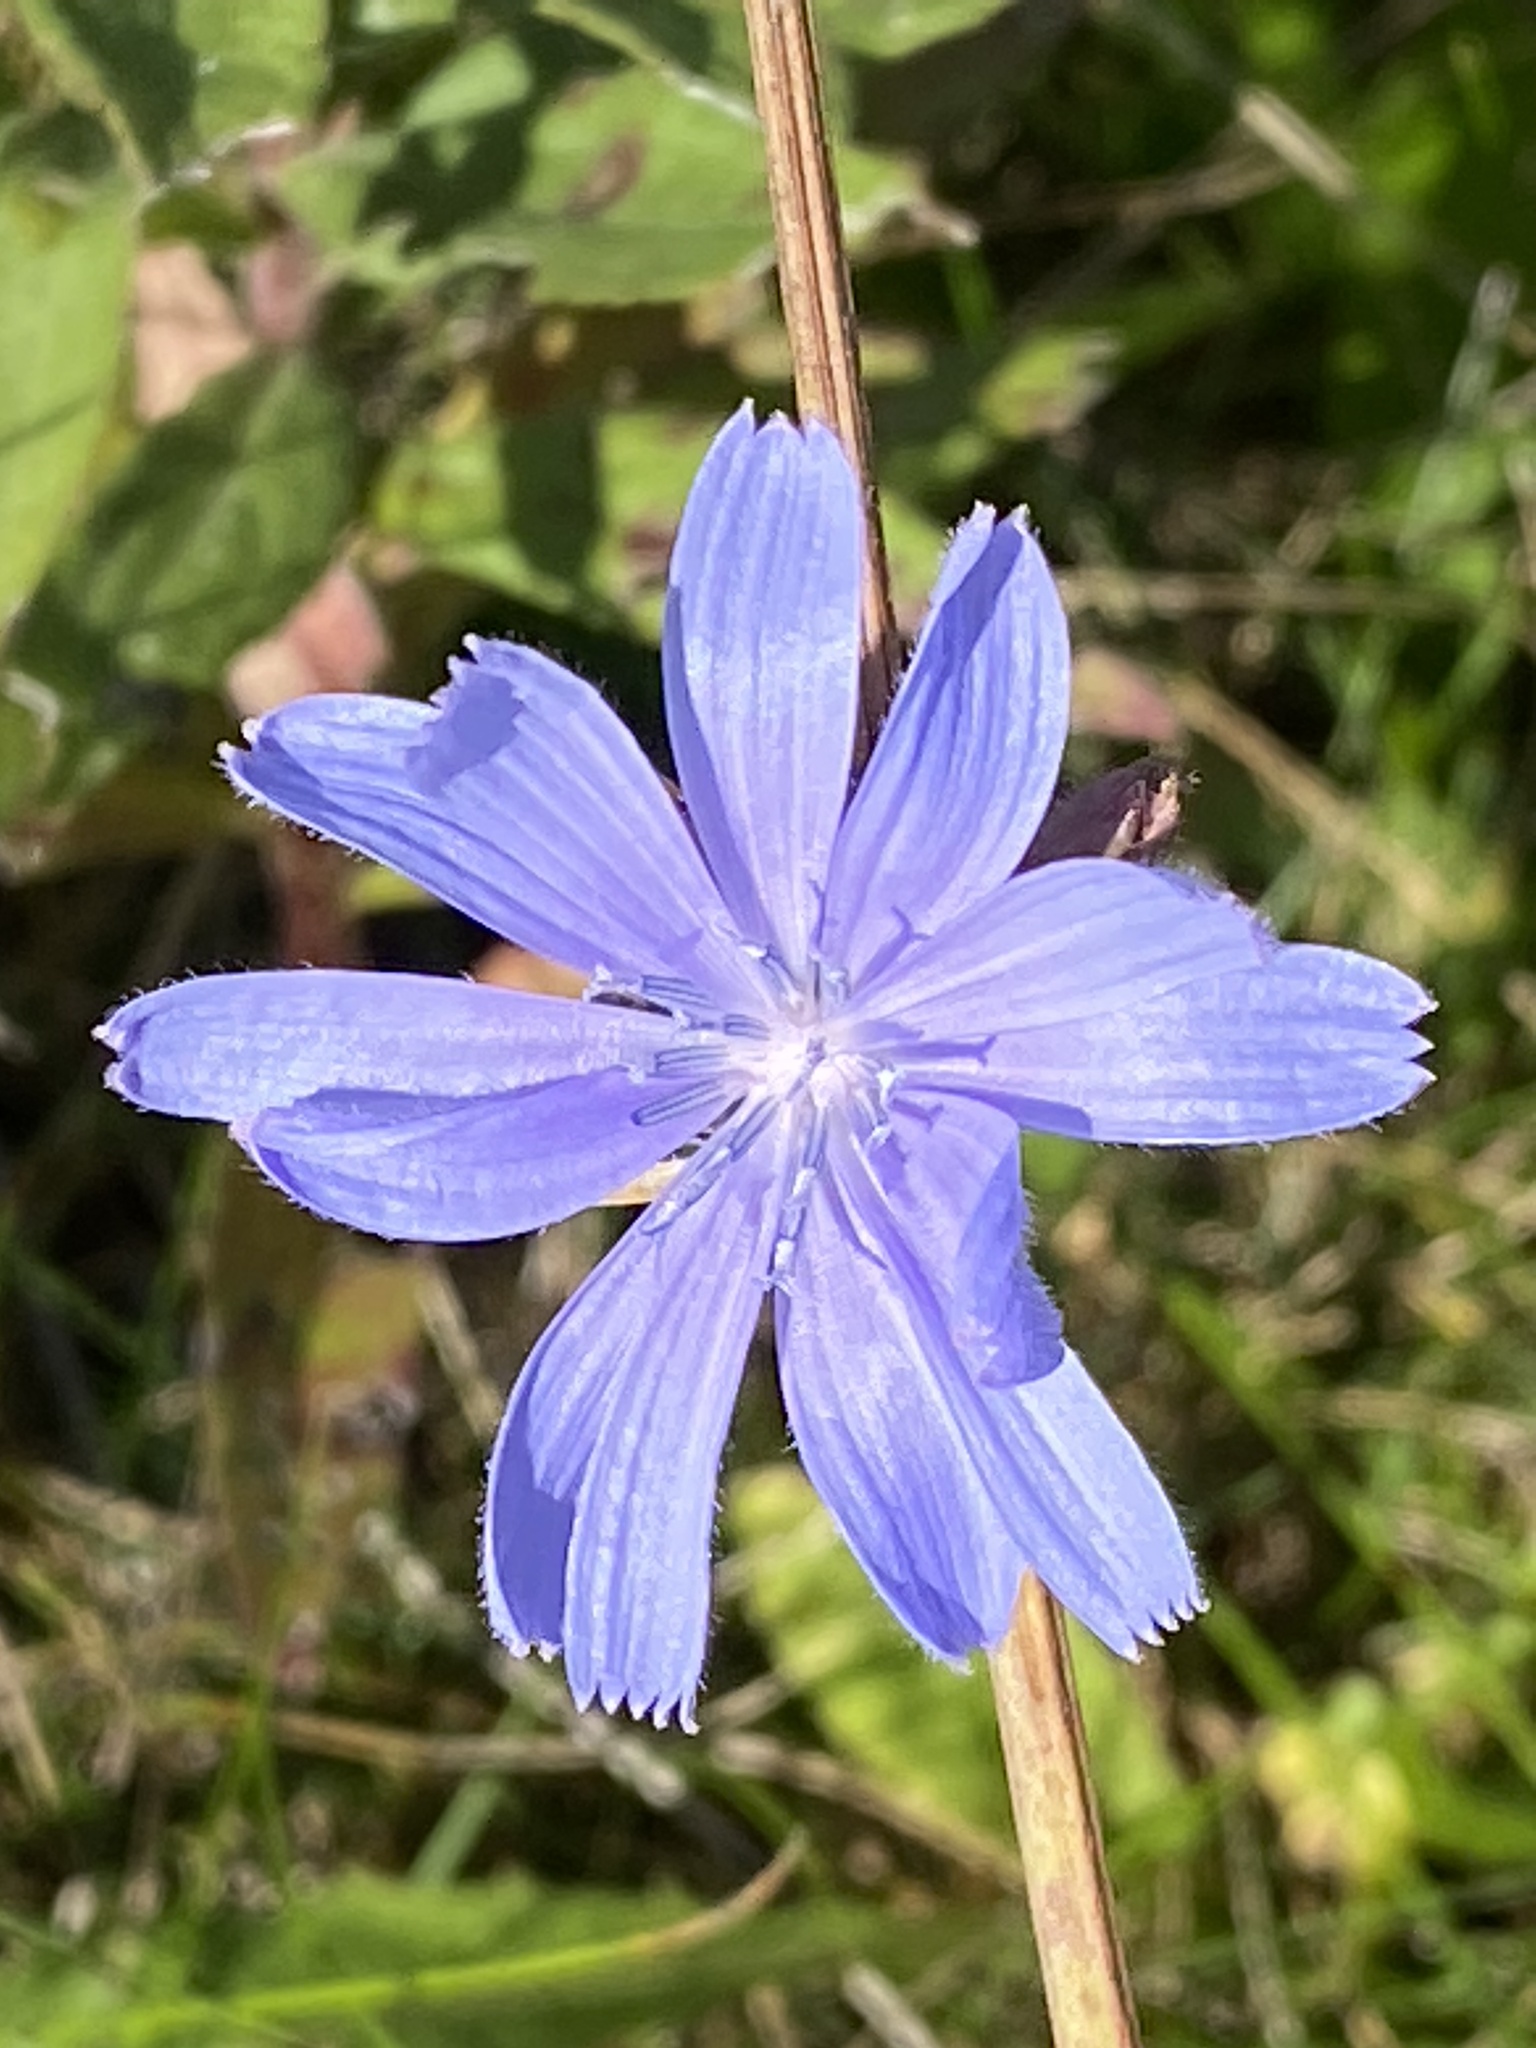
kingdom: Plantae
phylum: Tracheophyta
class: Magnoliopsida
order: Asterales
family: Asteraceae
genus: Cichorium
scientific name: Cichorium intybus
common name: Chicory
